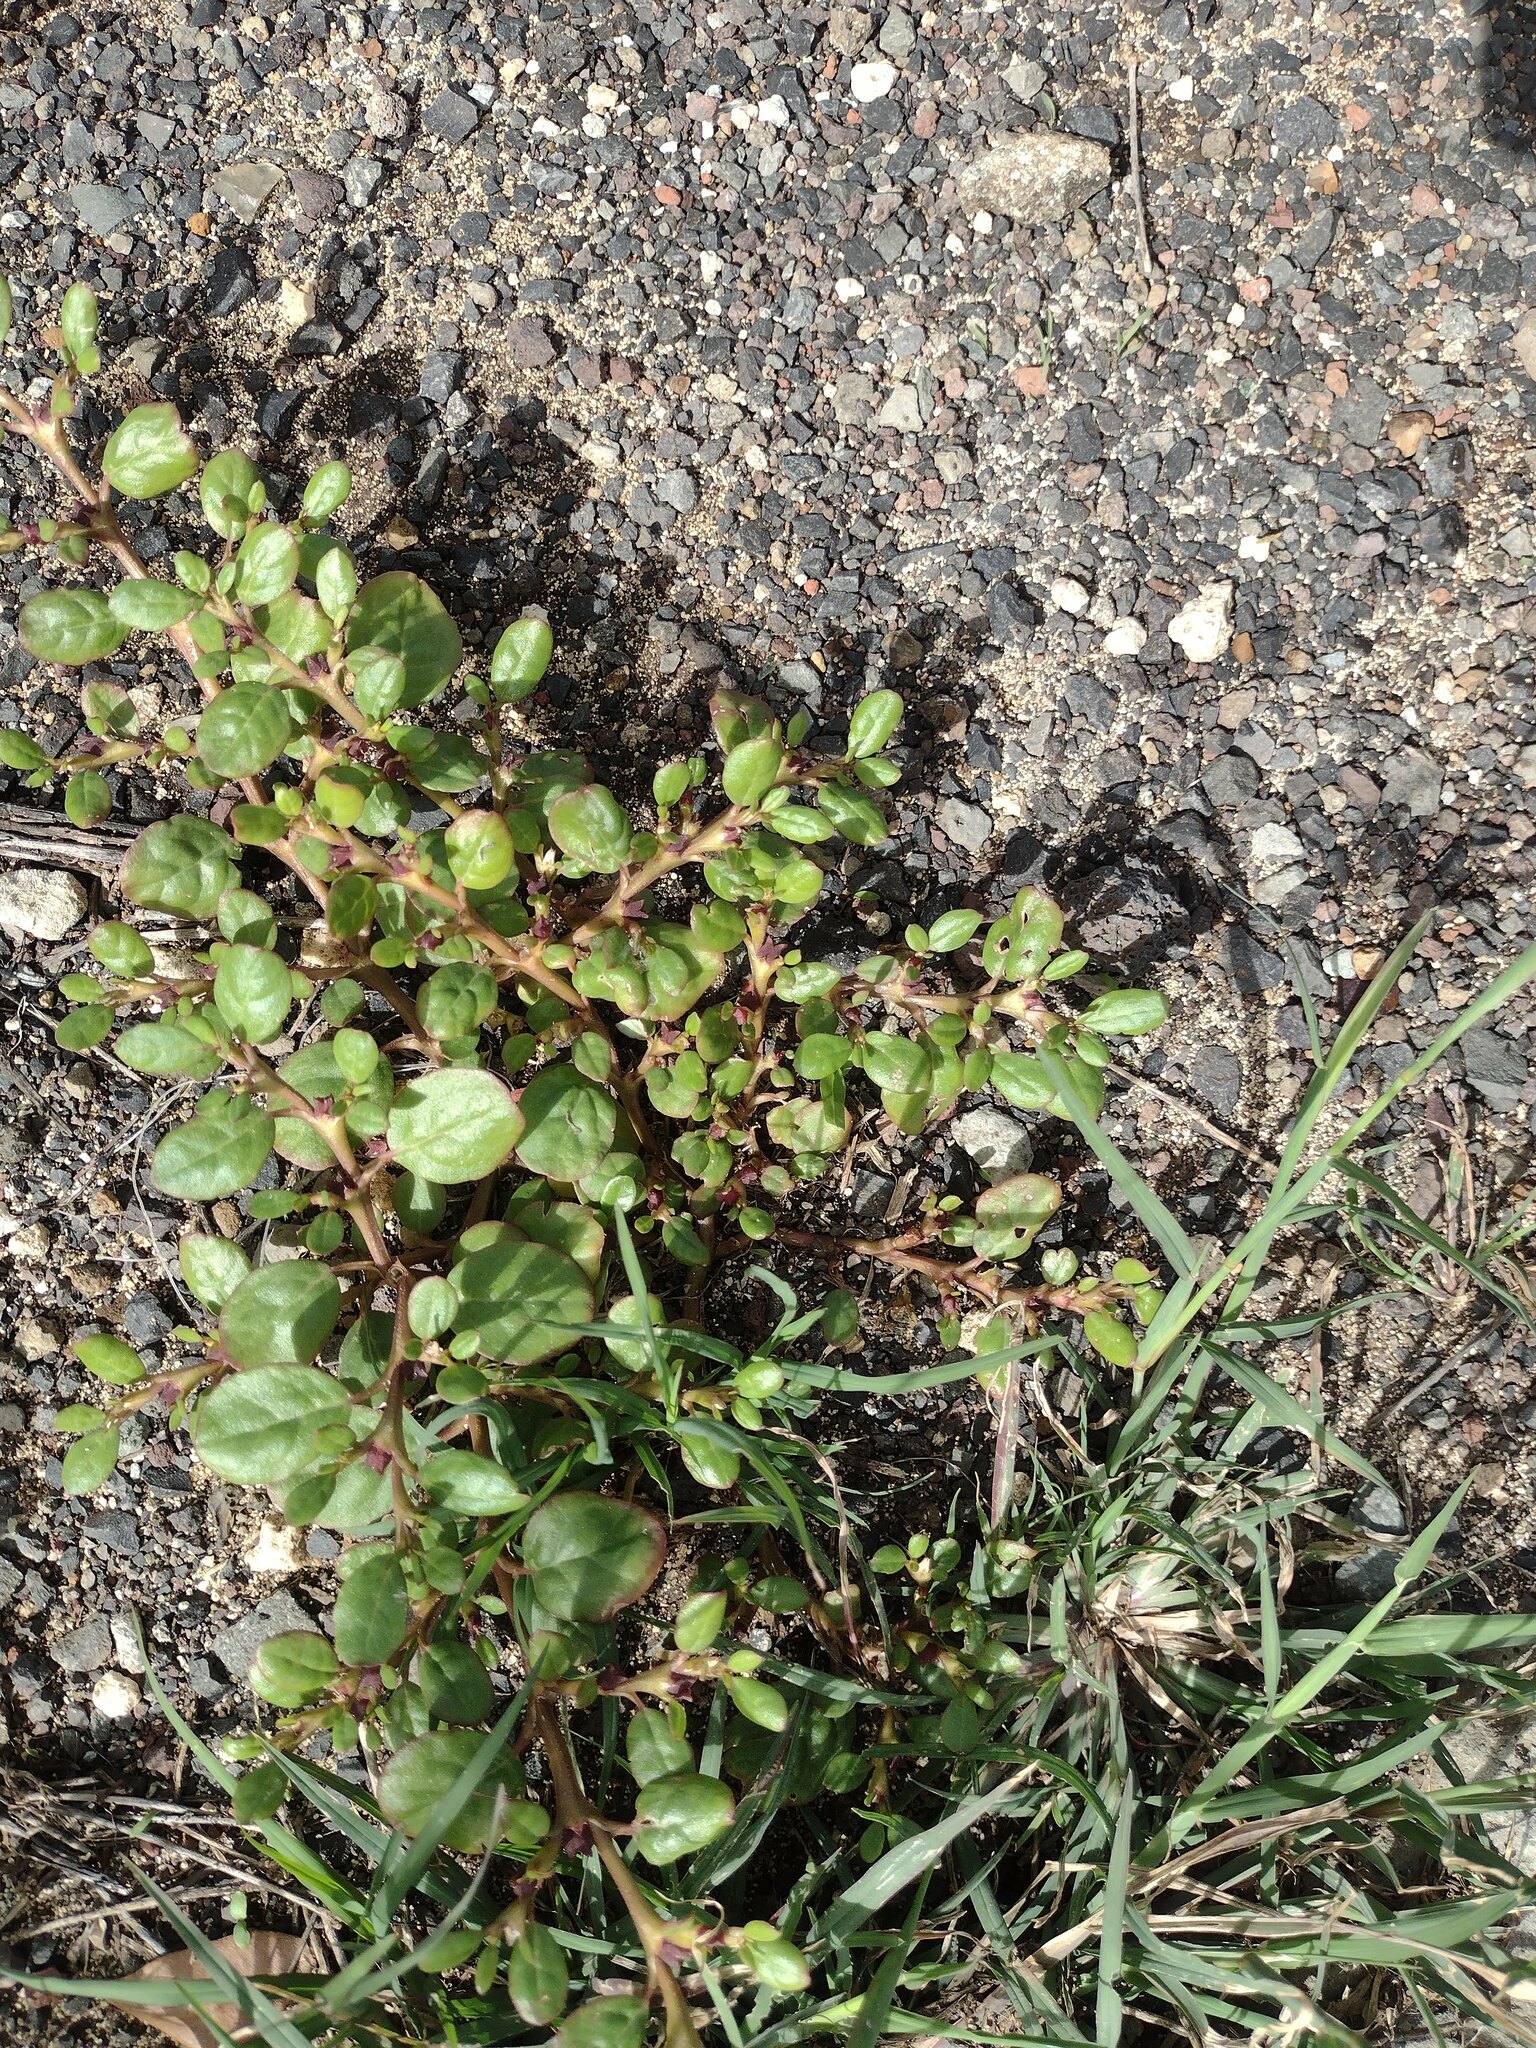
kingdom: Plantae
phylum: Tracheophyta
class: Magnoliopsida
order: Caryophyllales
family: Aizoaceae
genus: Trianthema
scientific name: Trianthema portulacastrum
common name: Desert horsepurslane
